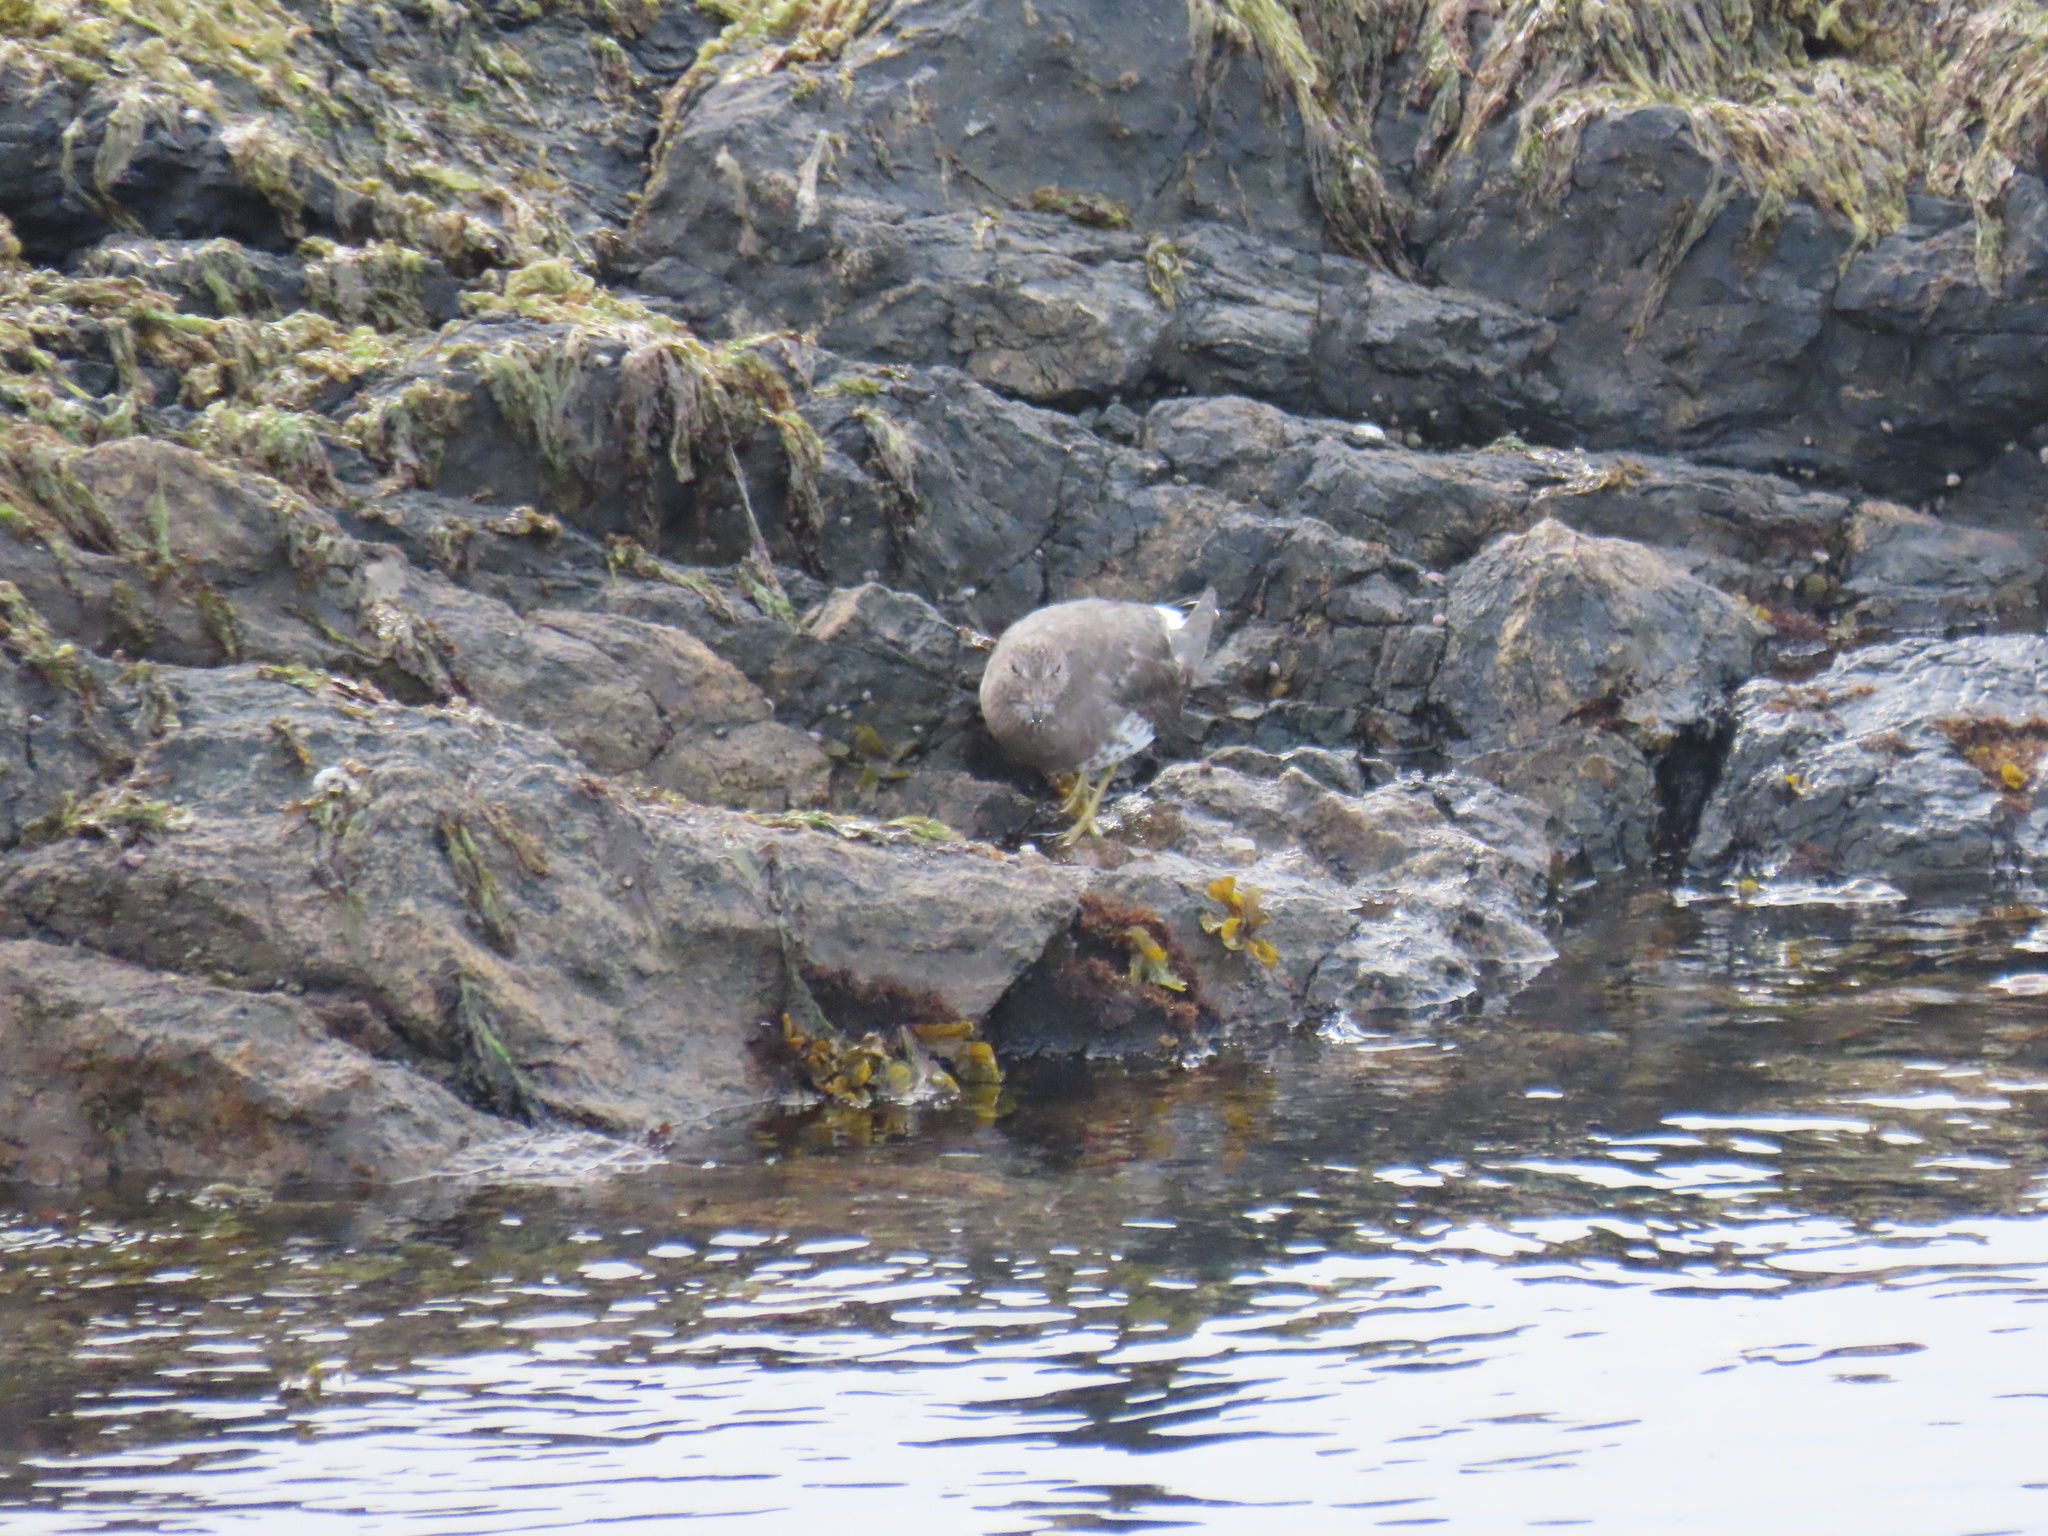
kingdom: Animalia
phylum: Chordata
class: Aves
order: Charadriiformes
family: Scolopacidae
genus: Calidris
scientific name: Calidris virgata
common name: Surfbird
